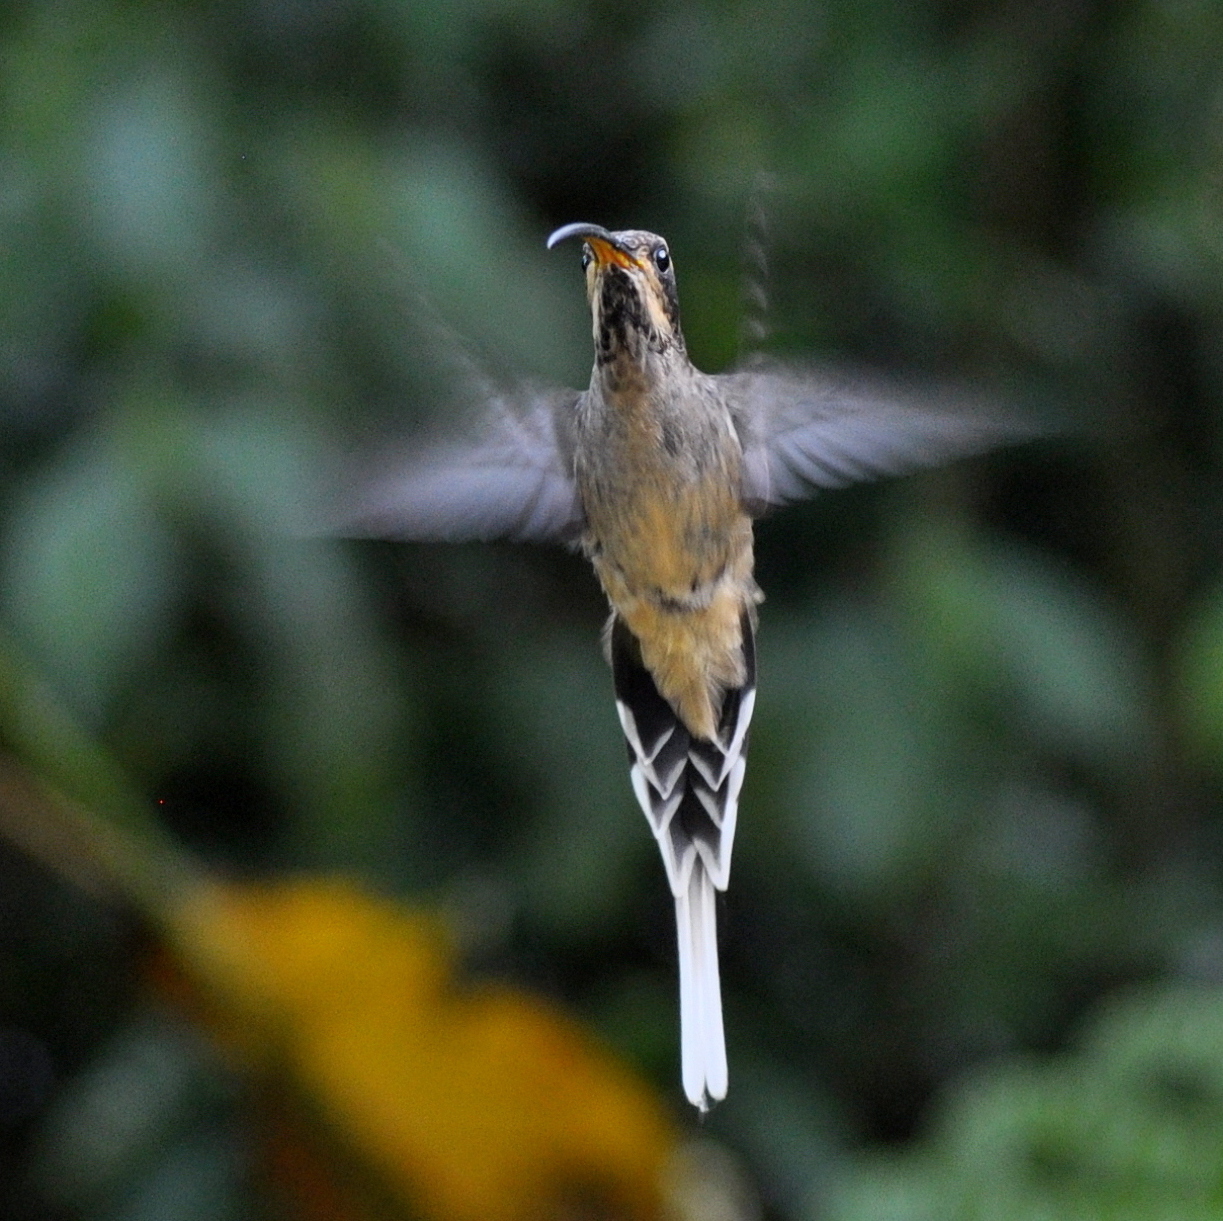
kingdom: Animalia
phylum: Chordata
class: Aves
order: Apodiformes
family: Trochilidae
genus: Phaethornis
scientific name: Phaethornis eurynome
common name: Scale-throated hermit
